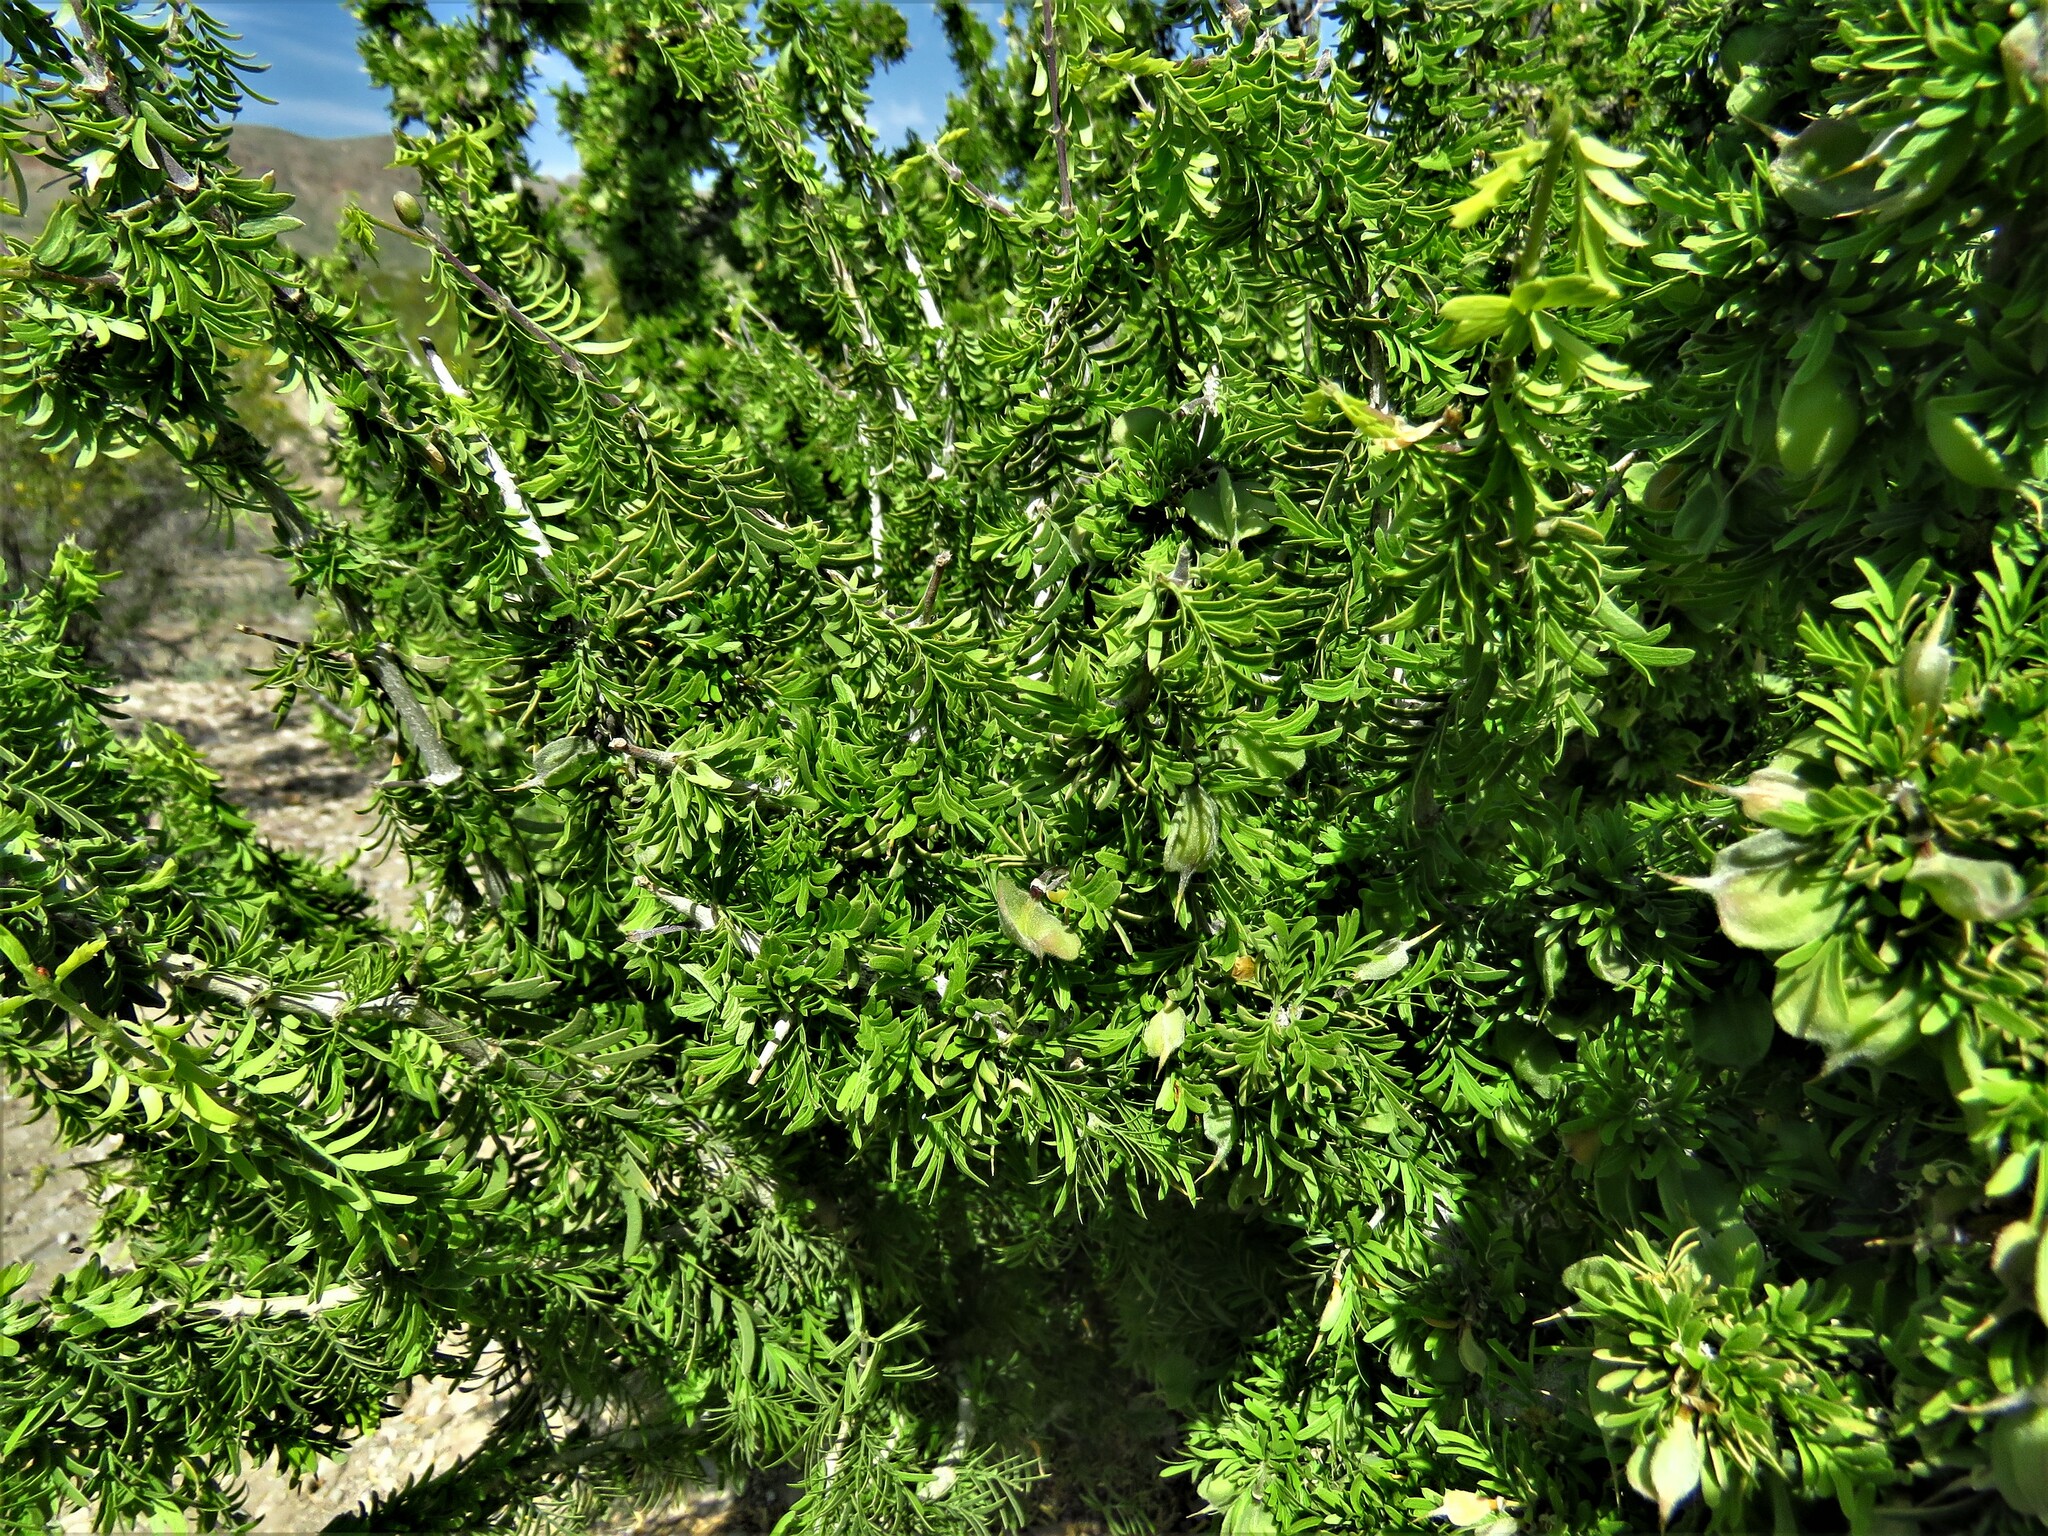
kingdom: Plantae
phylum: Tracheophyta
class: Magnoliopsida
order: Zygophyllales
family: Zygophyllaceae
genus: Porlieria
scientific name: Porlieria angustifolia
